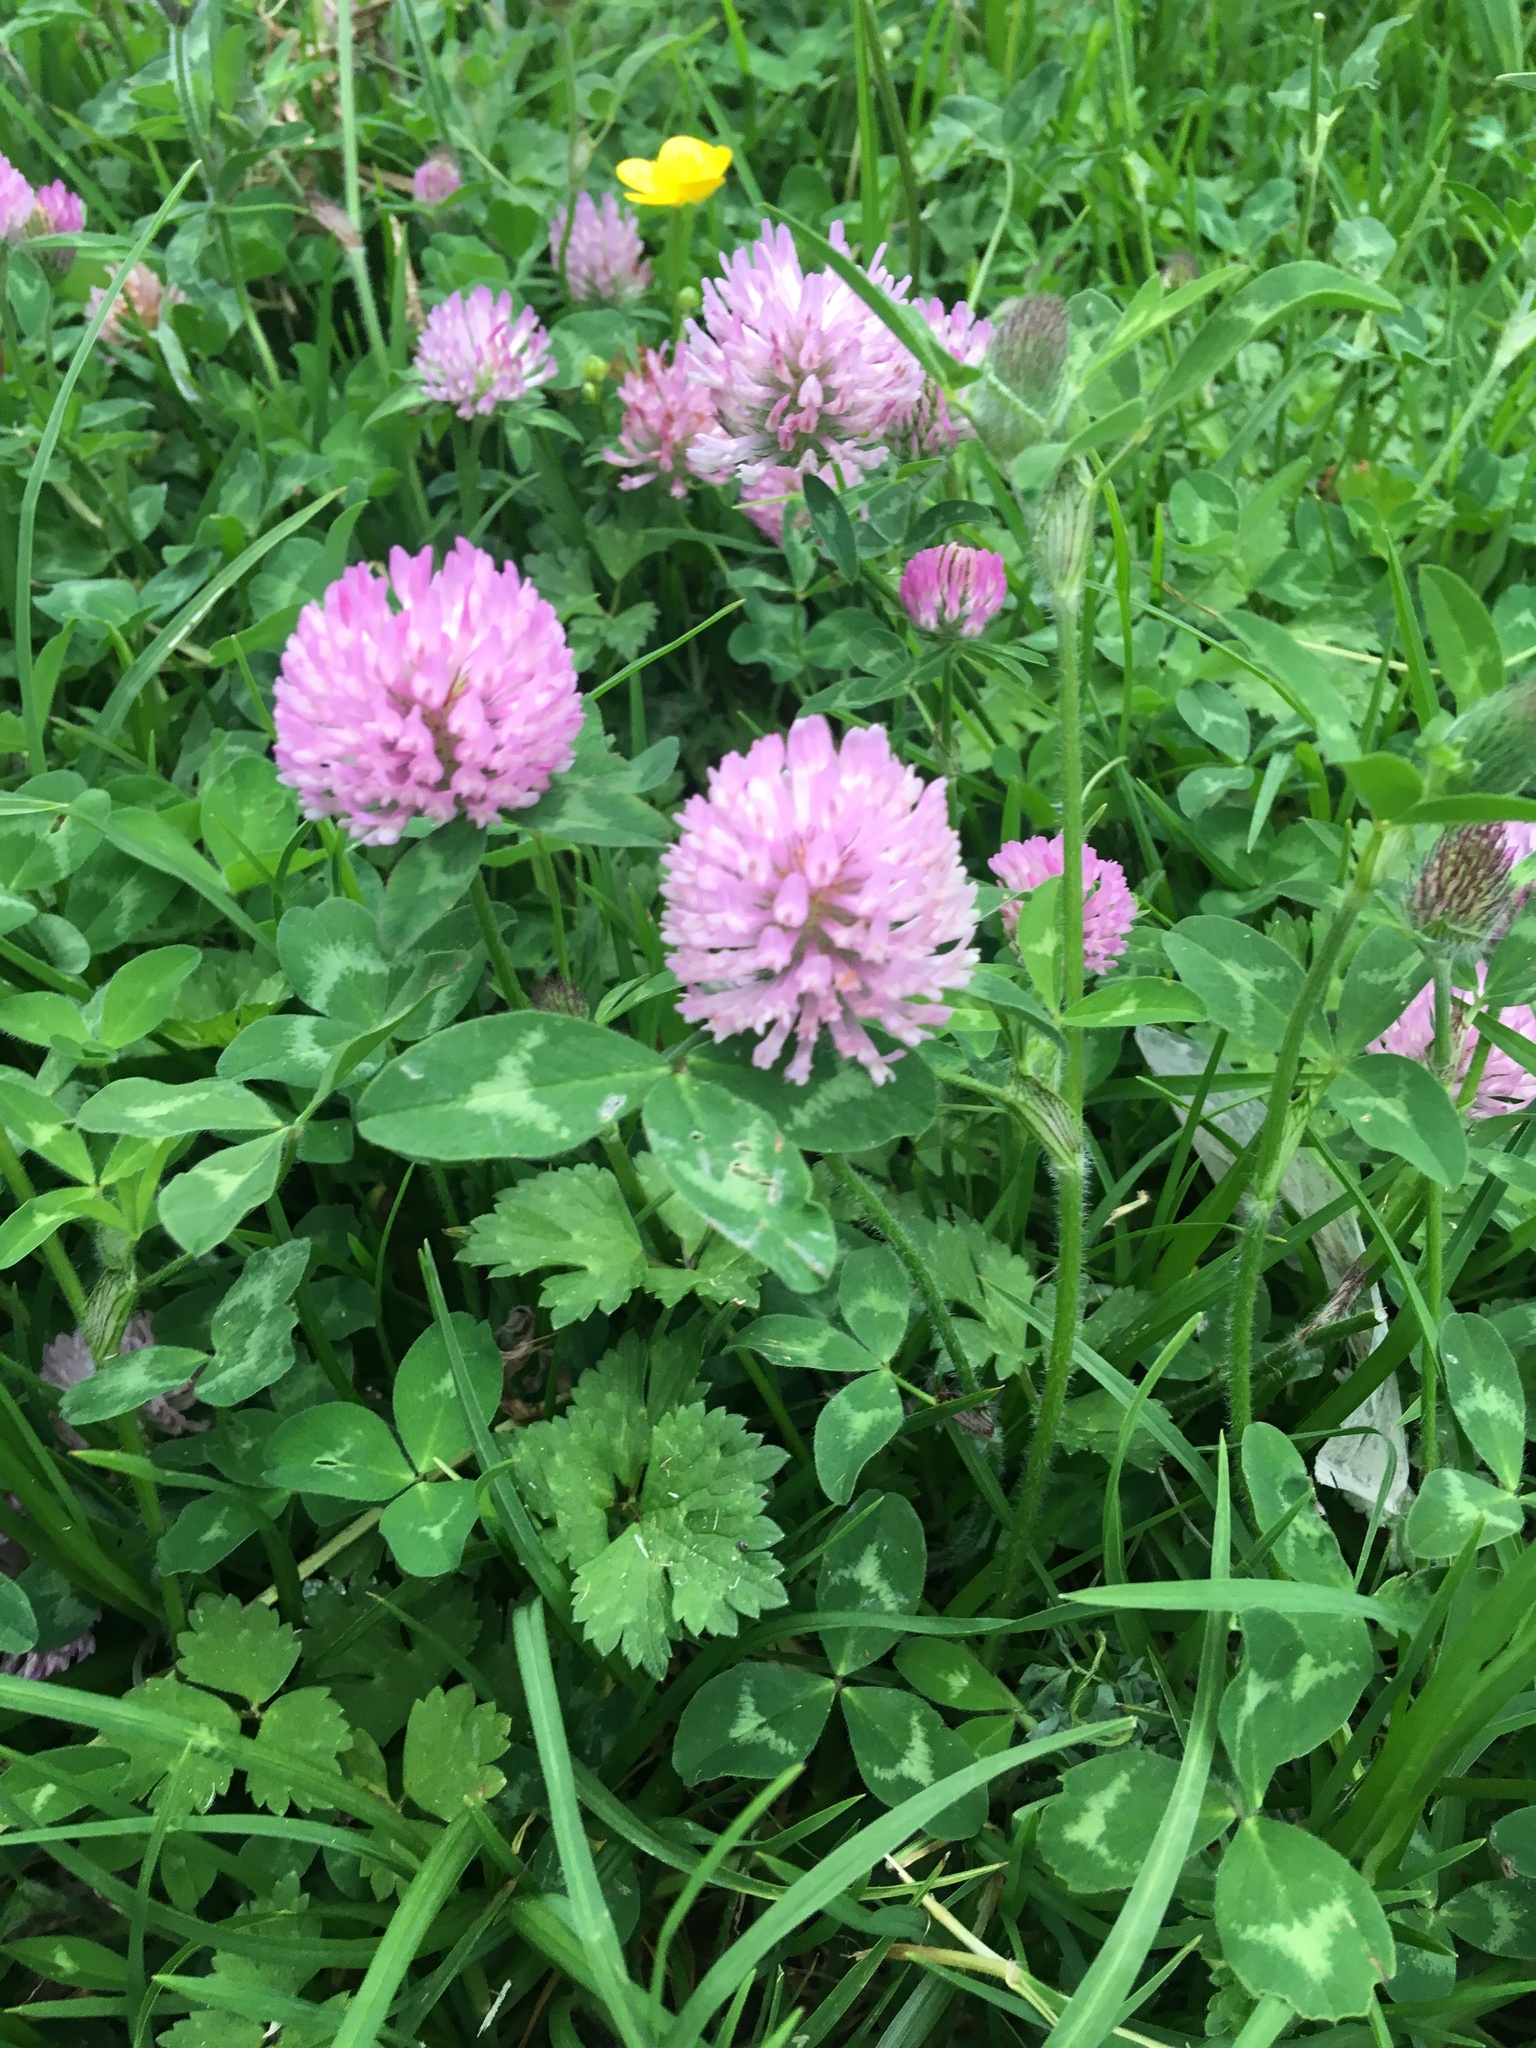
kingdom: Plantae
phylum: Tracheophyta
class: Magnoliopsida
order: Fabales
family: Fabaceae
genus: Trifolium
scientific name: Trifolium pratense
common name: Red clover
